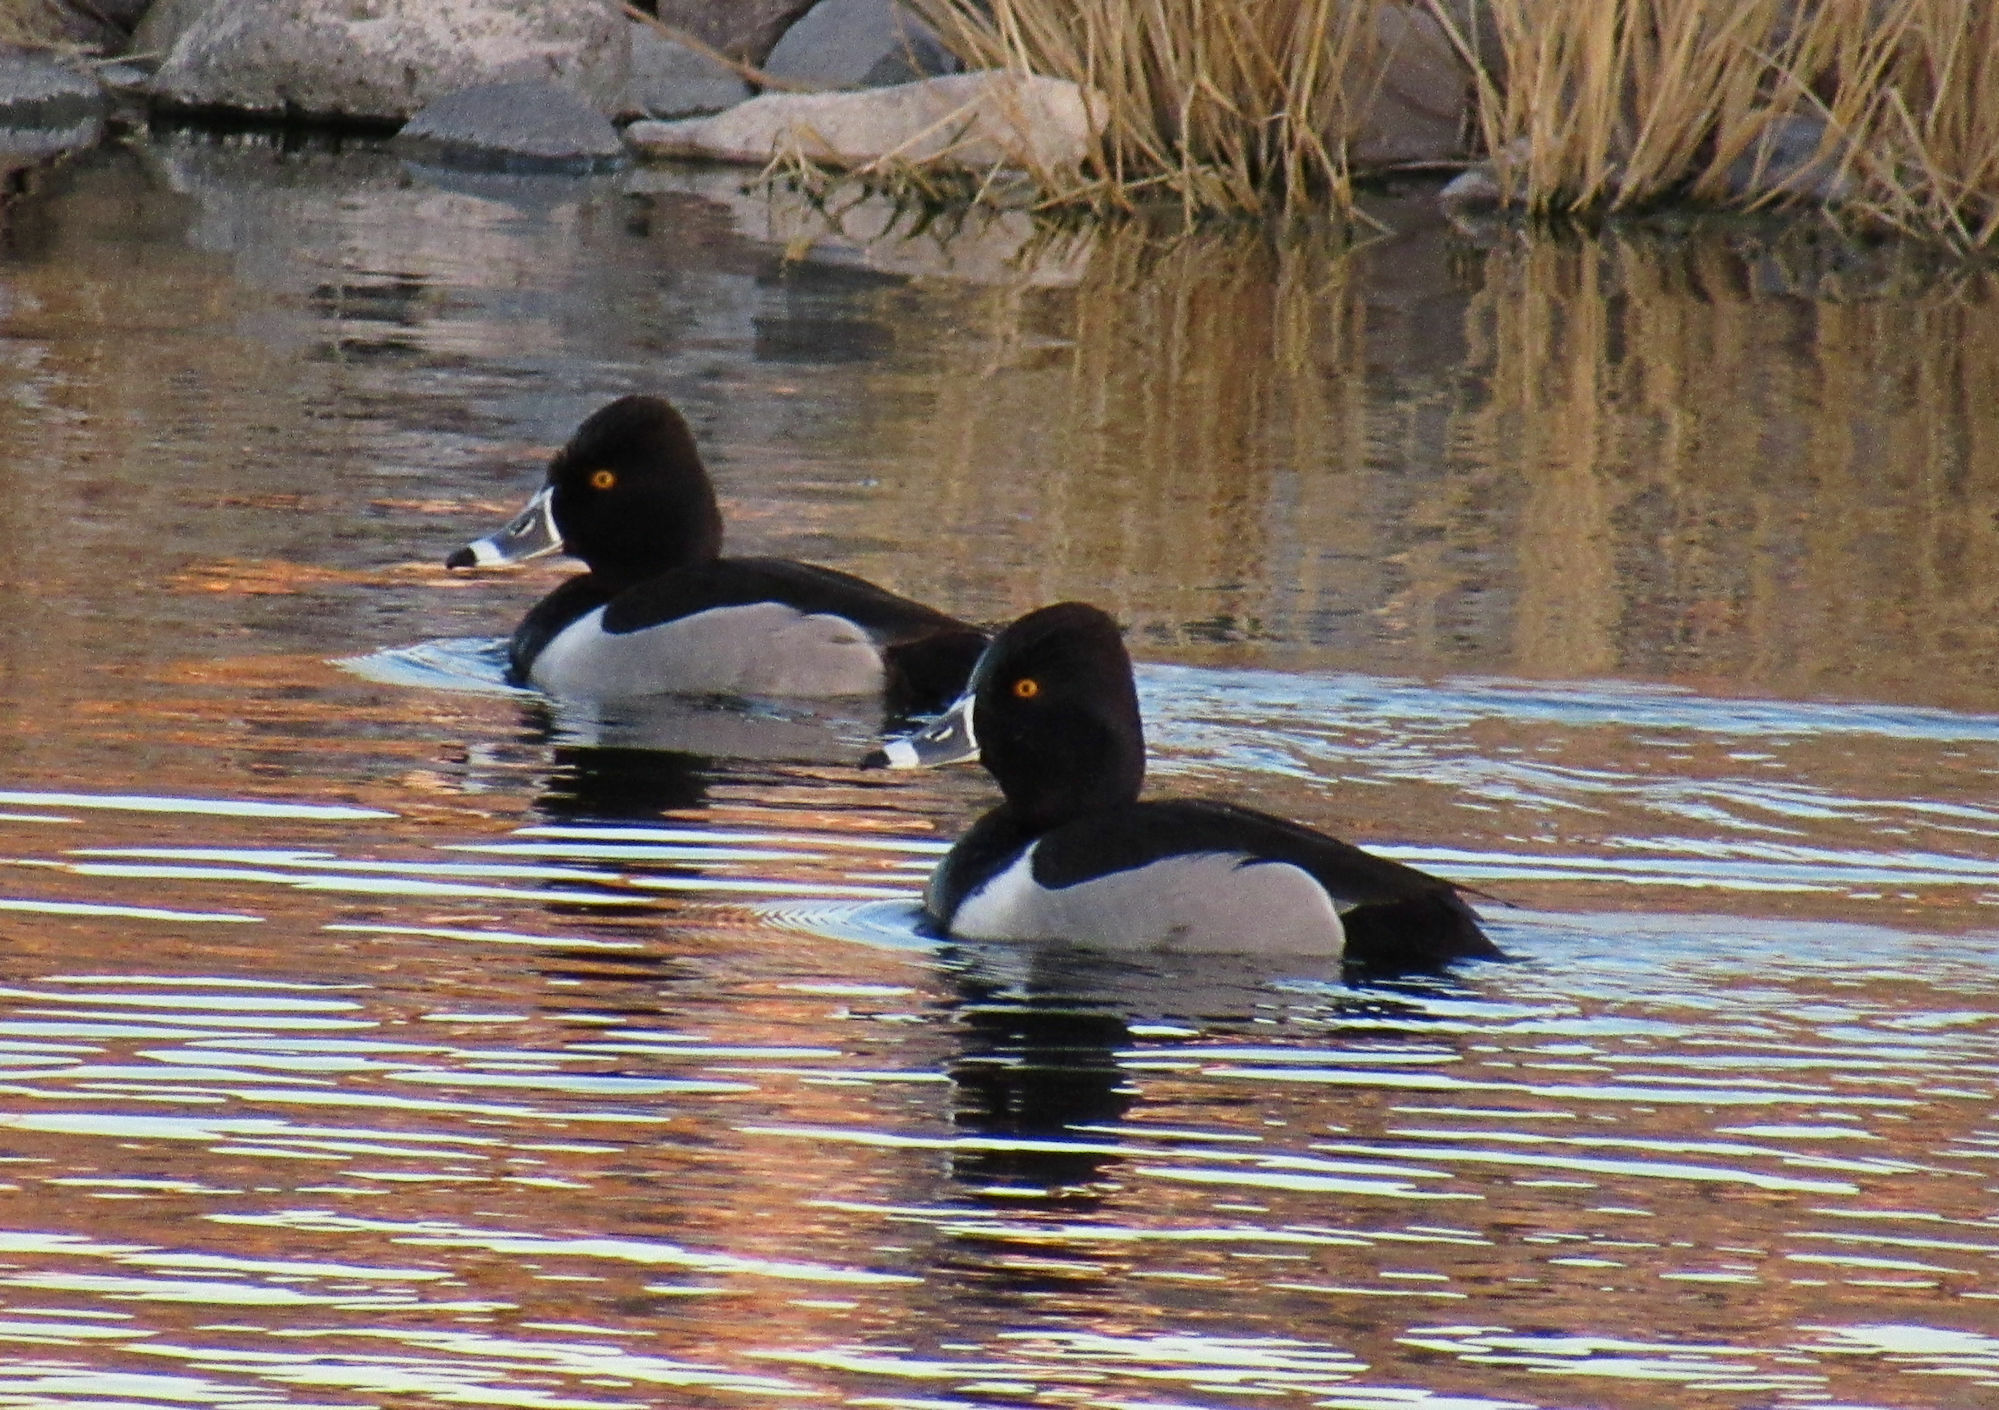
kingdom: Animalia
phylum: Chordata
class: Aves
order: Anseriformes
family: Anatidae
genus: Aythya
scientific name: Aythya collaris
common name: Ring-necked duck
